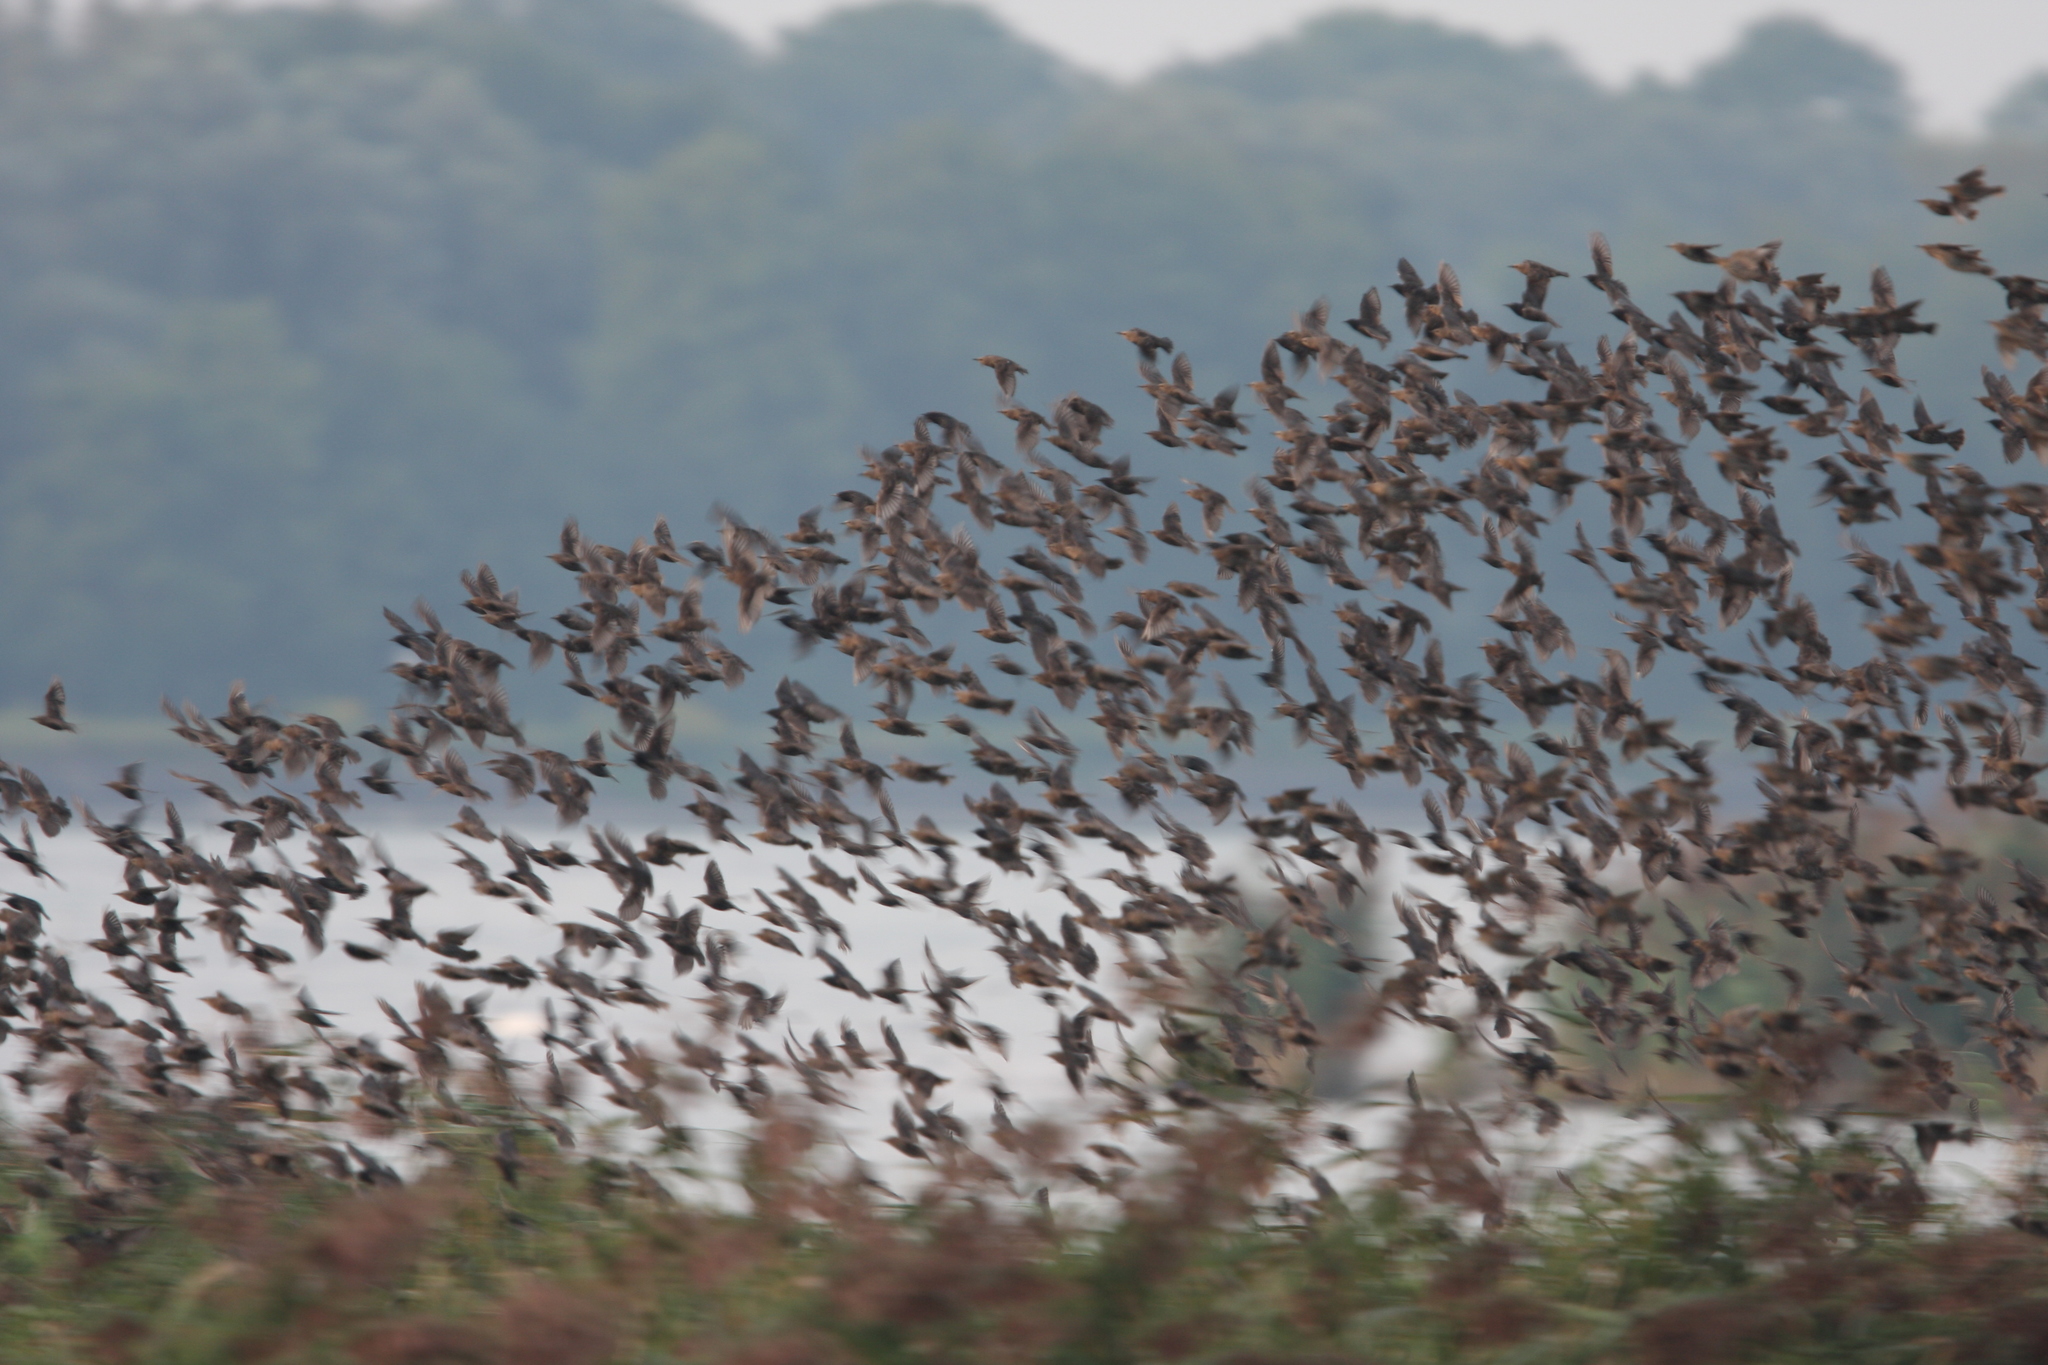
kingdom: Animalia
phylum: Chordata
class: Aves
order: Passeriformes
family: Sturnidae
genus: Sturnus
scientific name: Sturnus vulgaris
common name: Common starling
